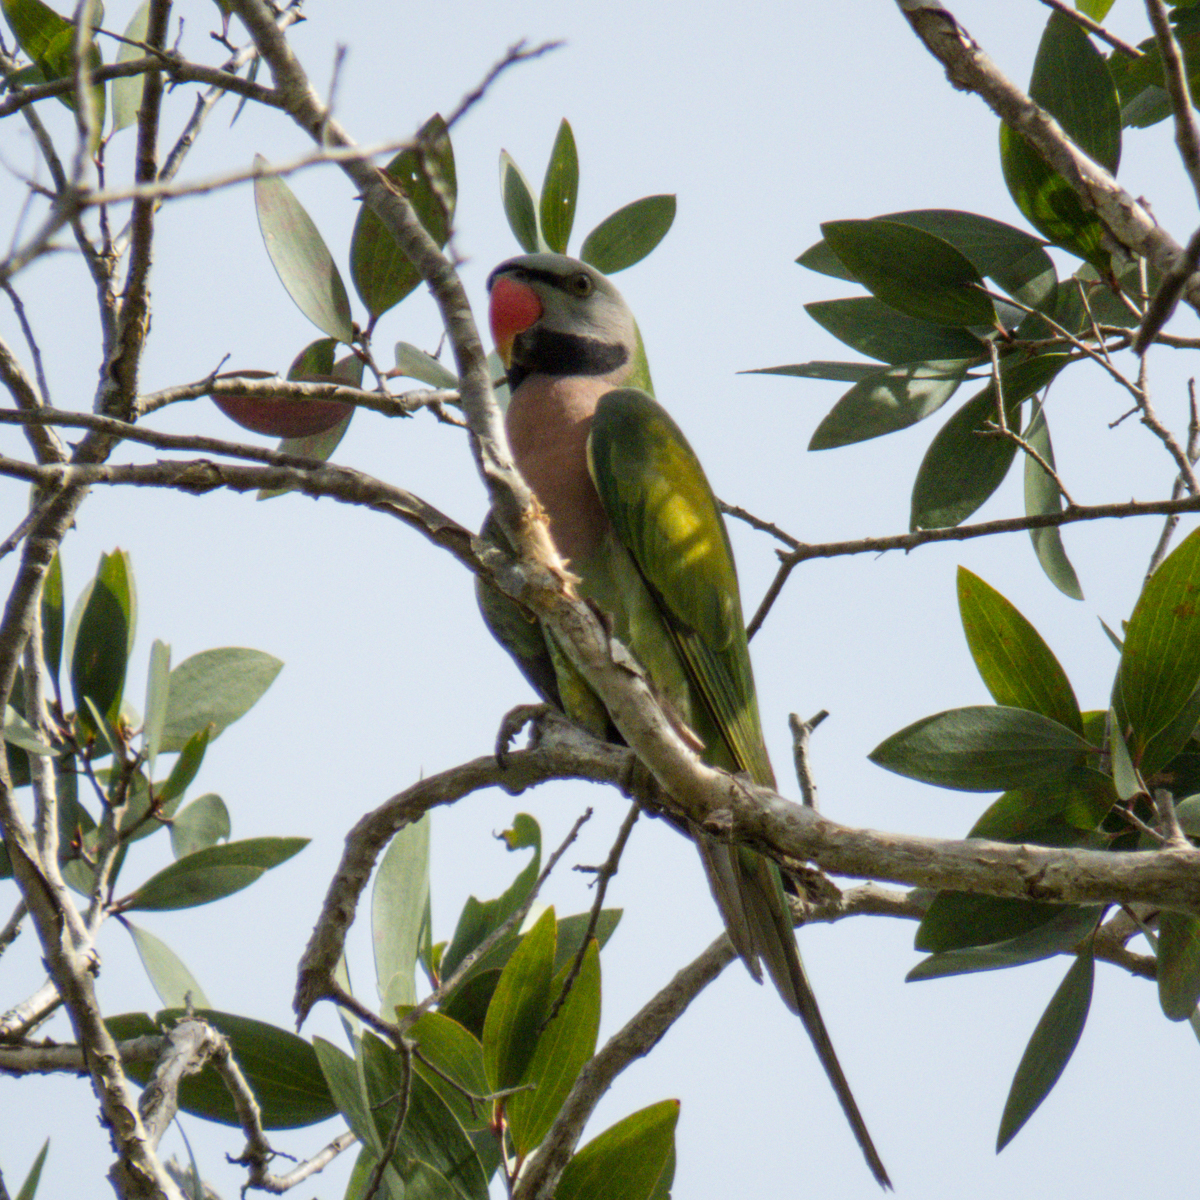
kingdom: Animalia
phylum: Chordata
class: Aves
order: Psittaciformes
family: Psittacidae
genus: Psittacula
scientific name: Psittacula alexandri
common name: Red-breasted parakeet
